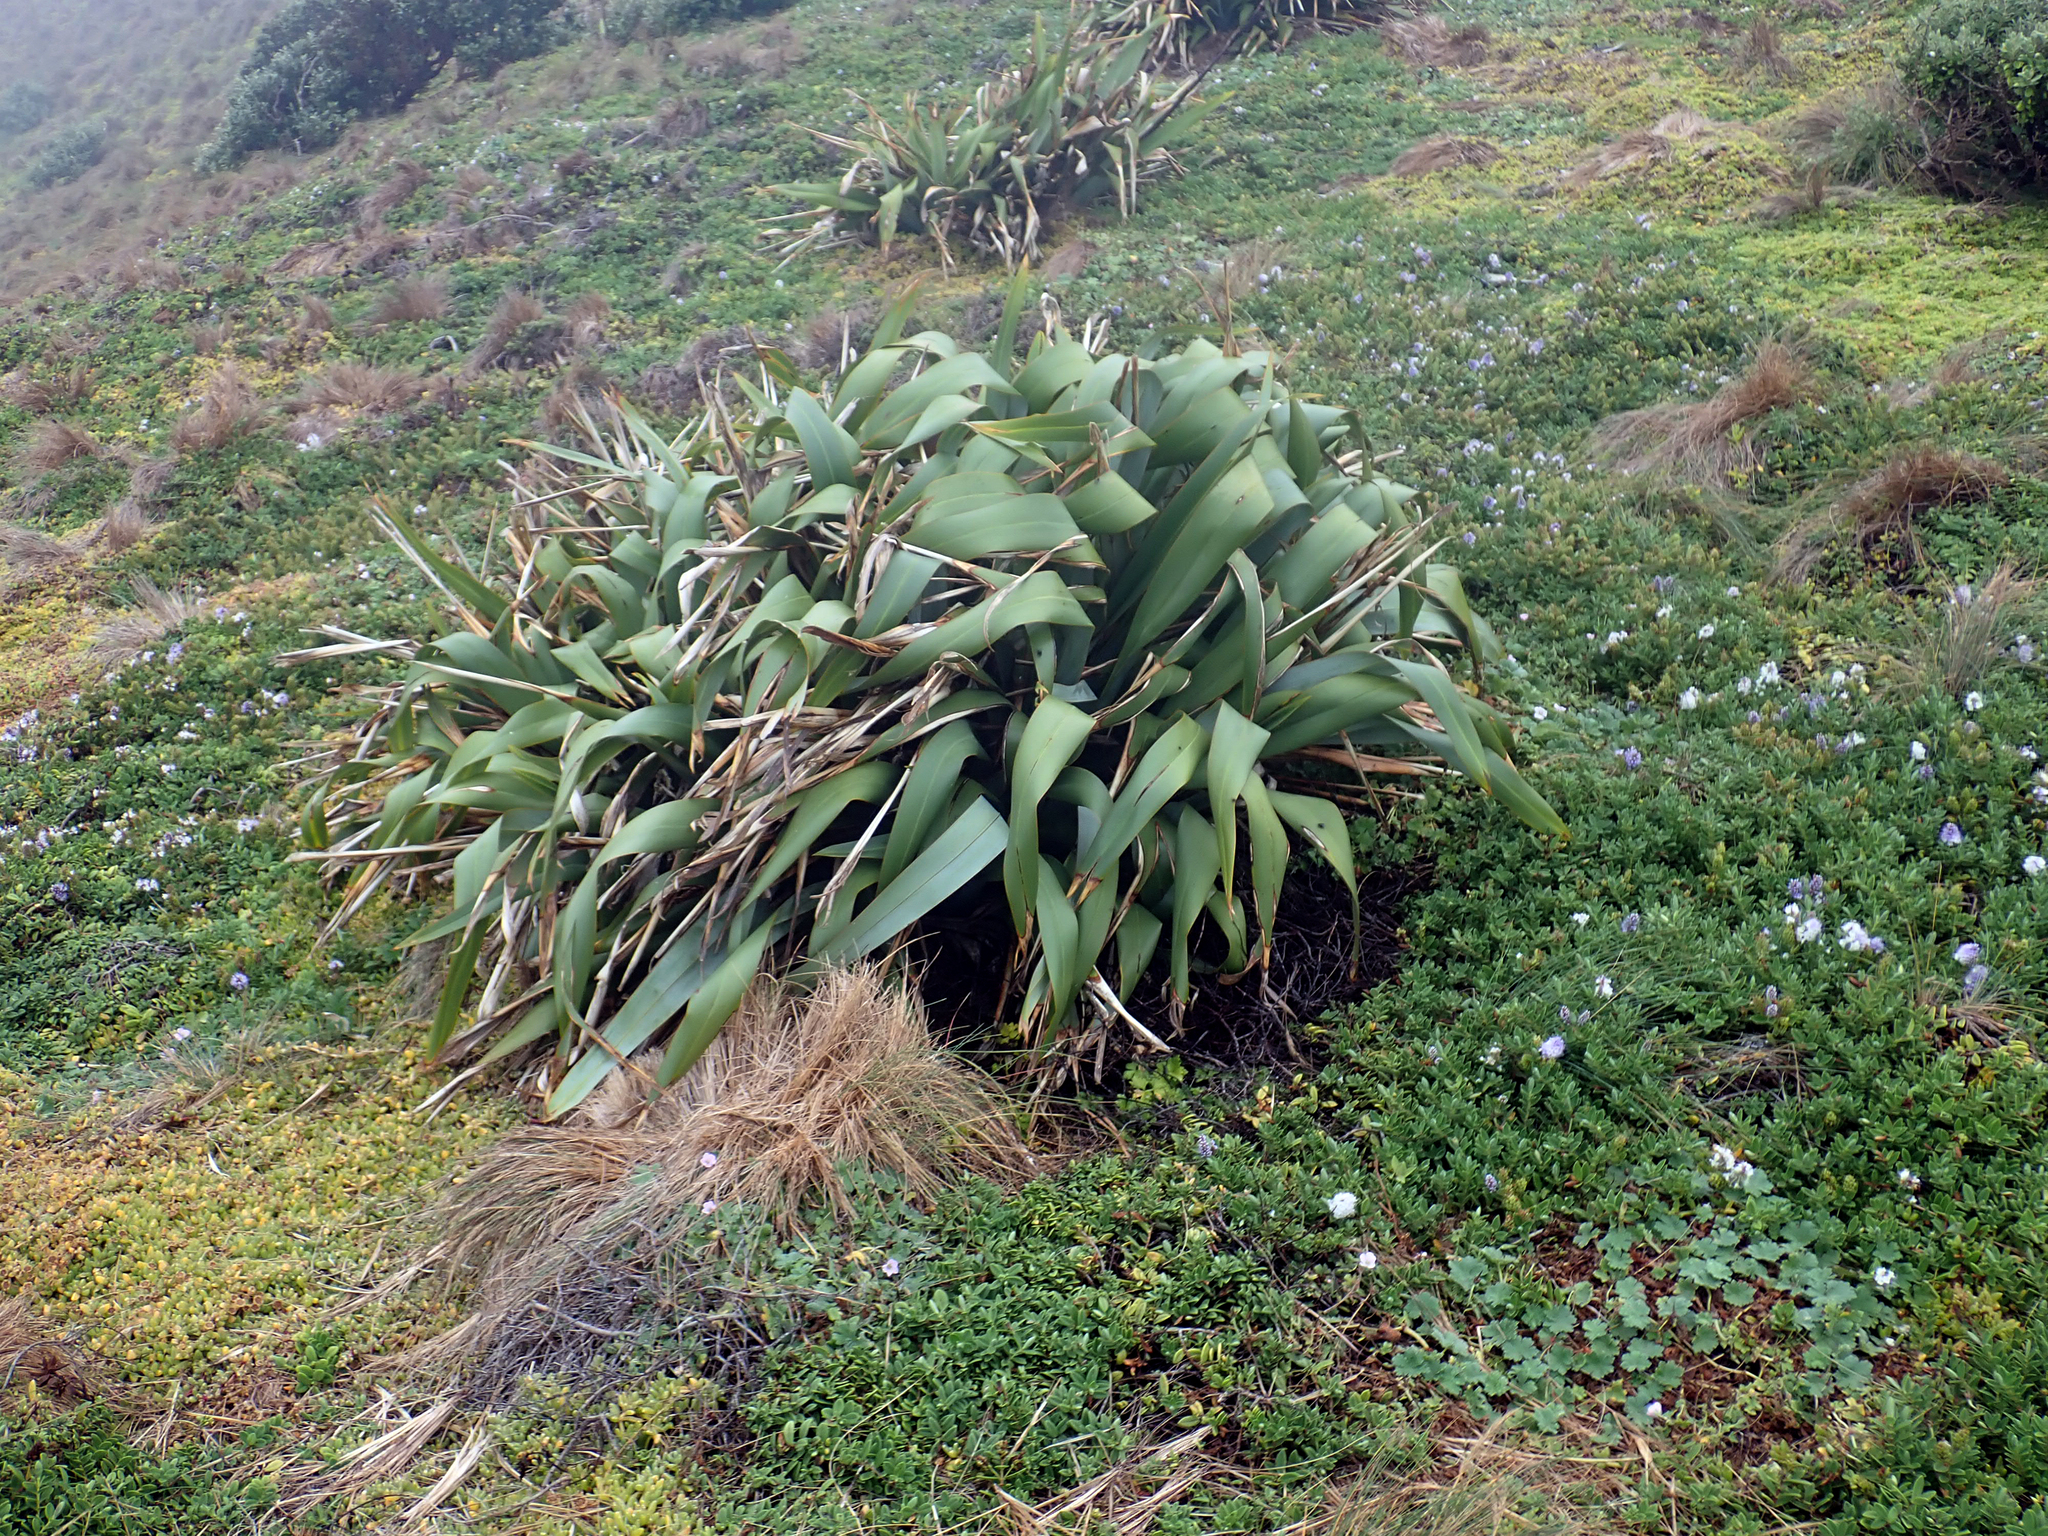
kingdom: Plantae
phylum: Tracheophyta
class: Liliopsida
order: Asparagales
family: Asphodelaceae
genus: Phormium
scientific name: Phormium tenax
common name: New zealand flax
